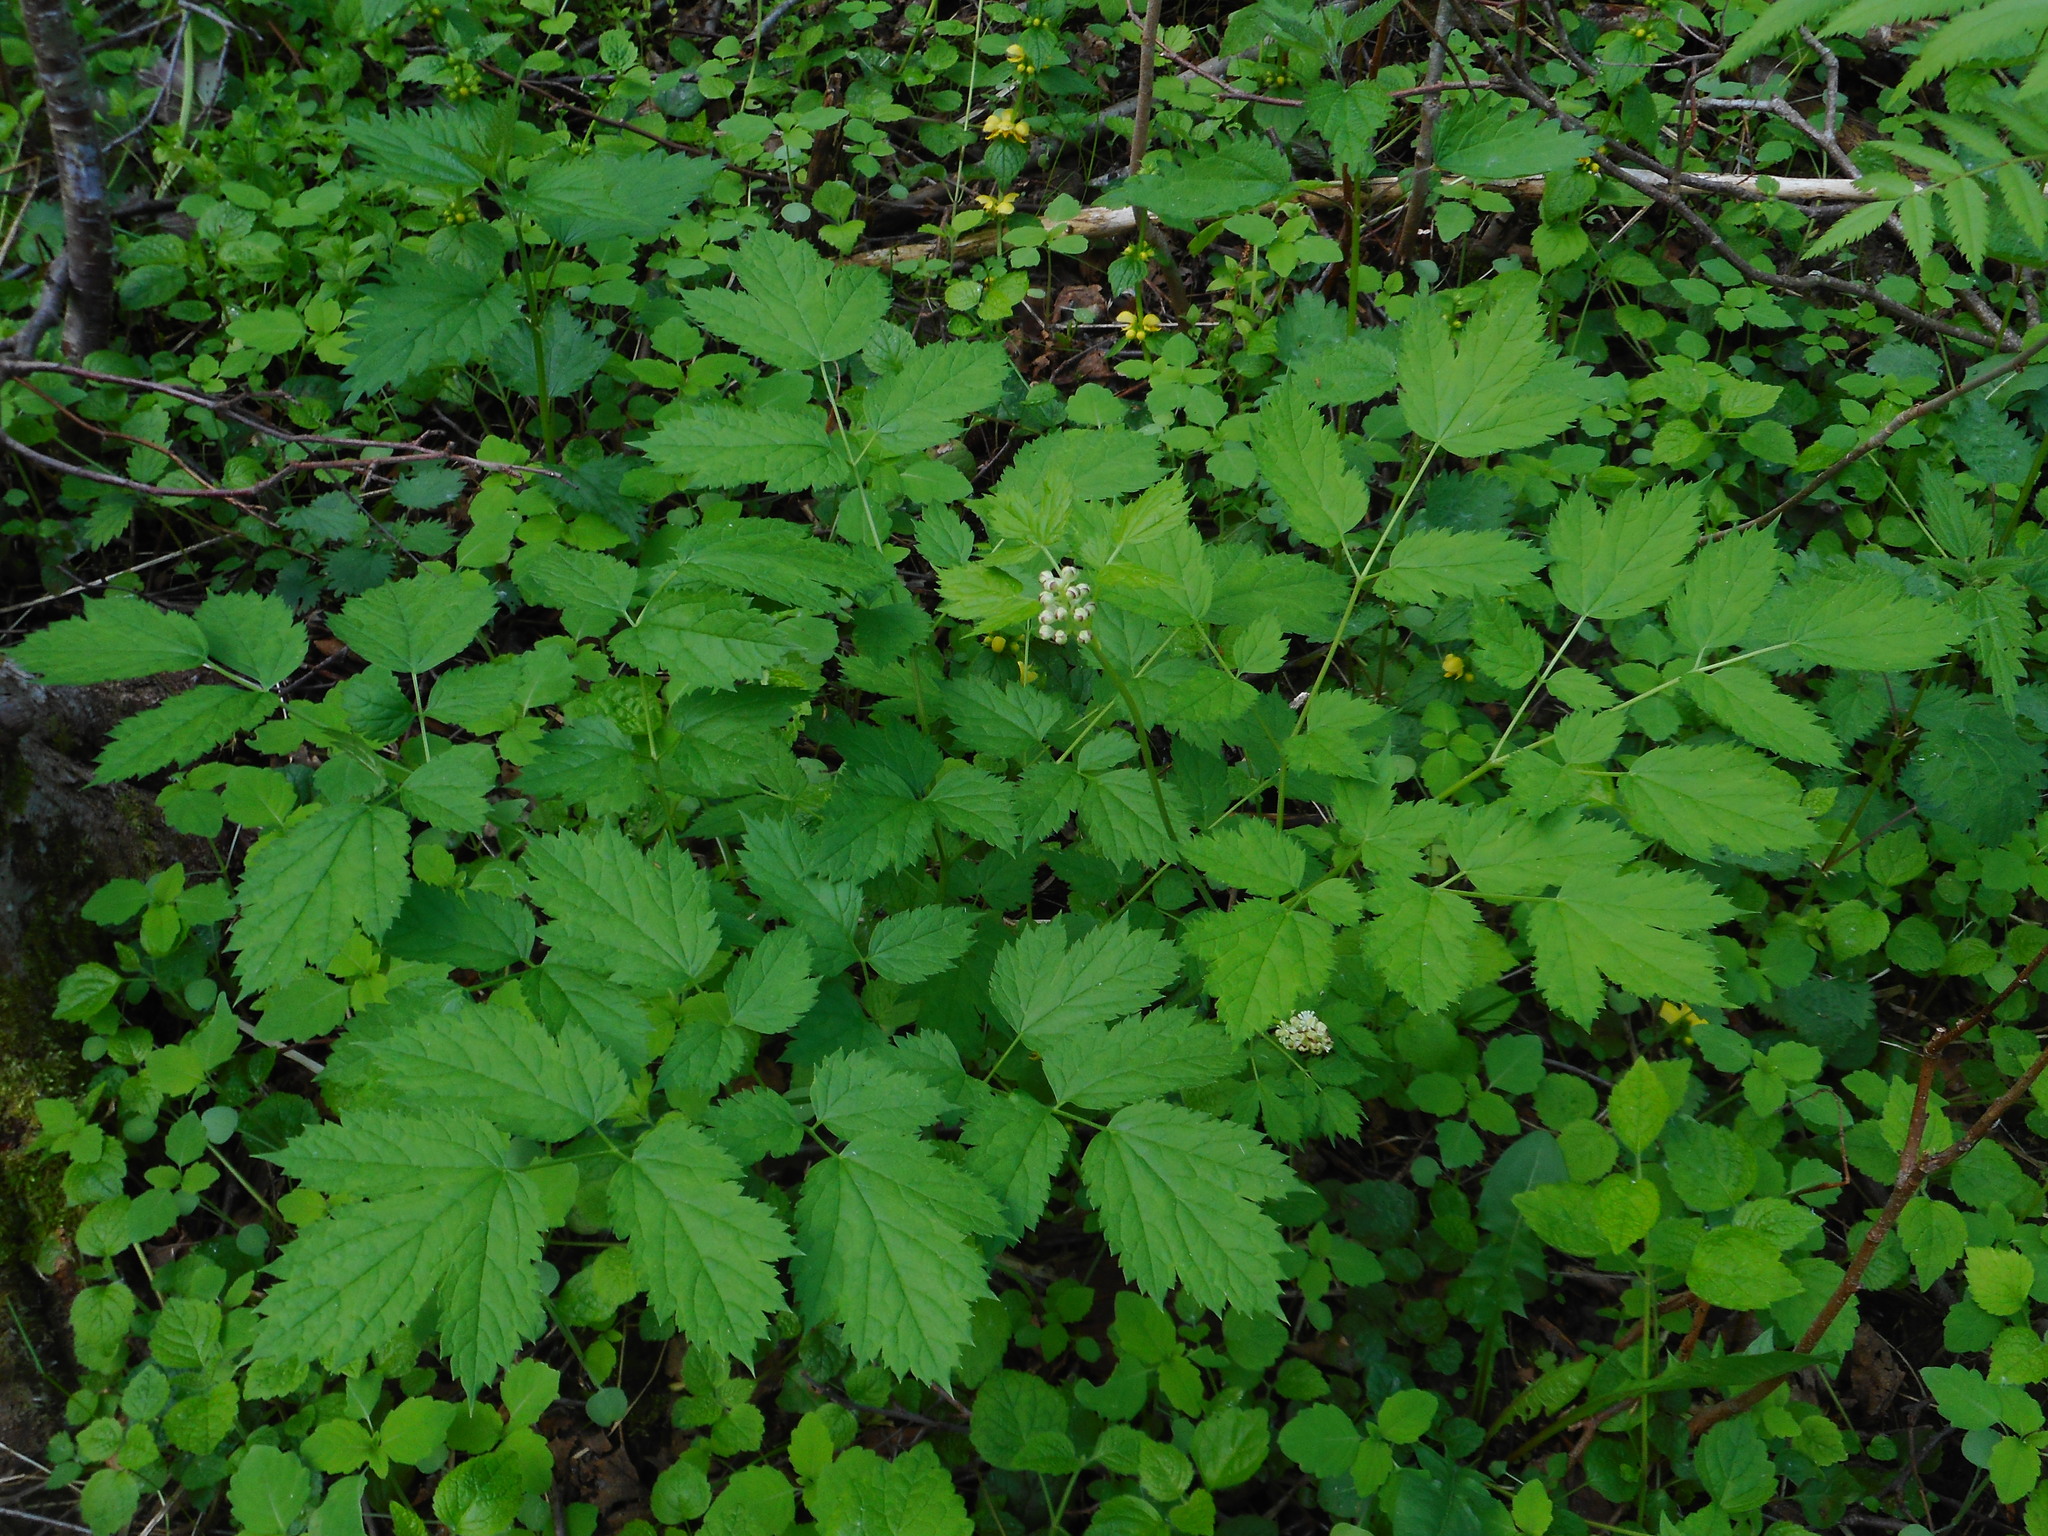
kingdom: Plantae
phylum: Tracheophyta
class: Magnoliopsida
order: Ranunculales
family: Ranunculaceae
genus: Actaea
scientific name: Actaea spicata
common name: Baneberry
